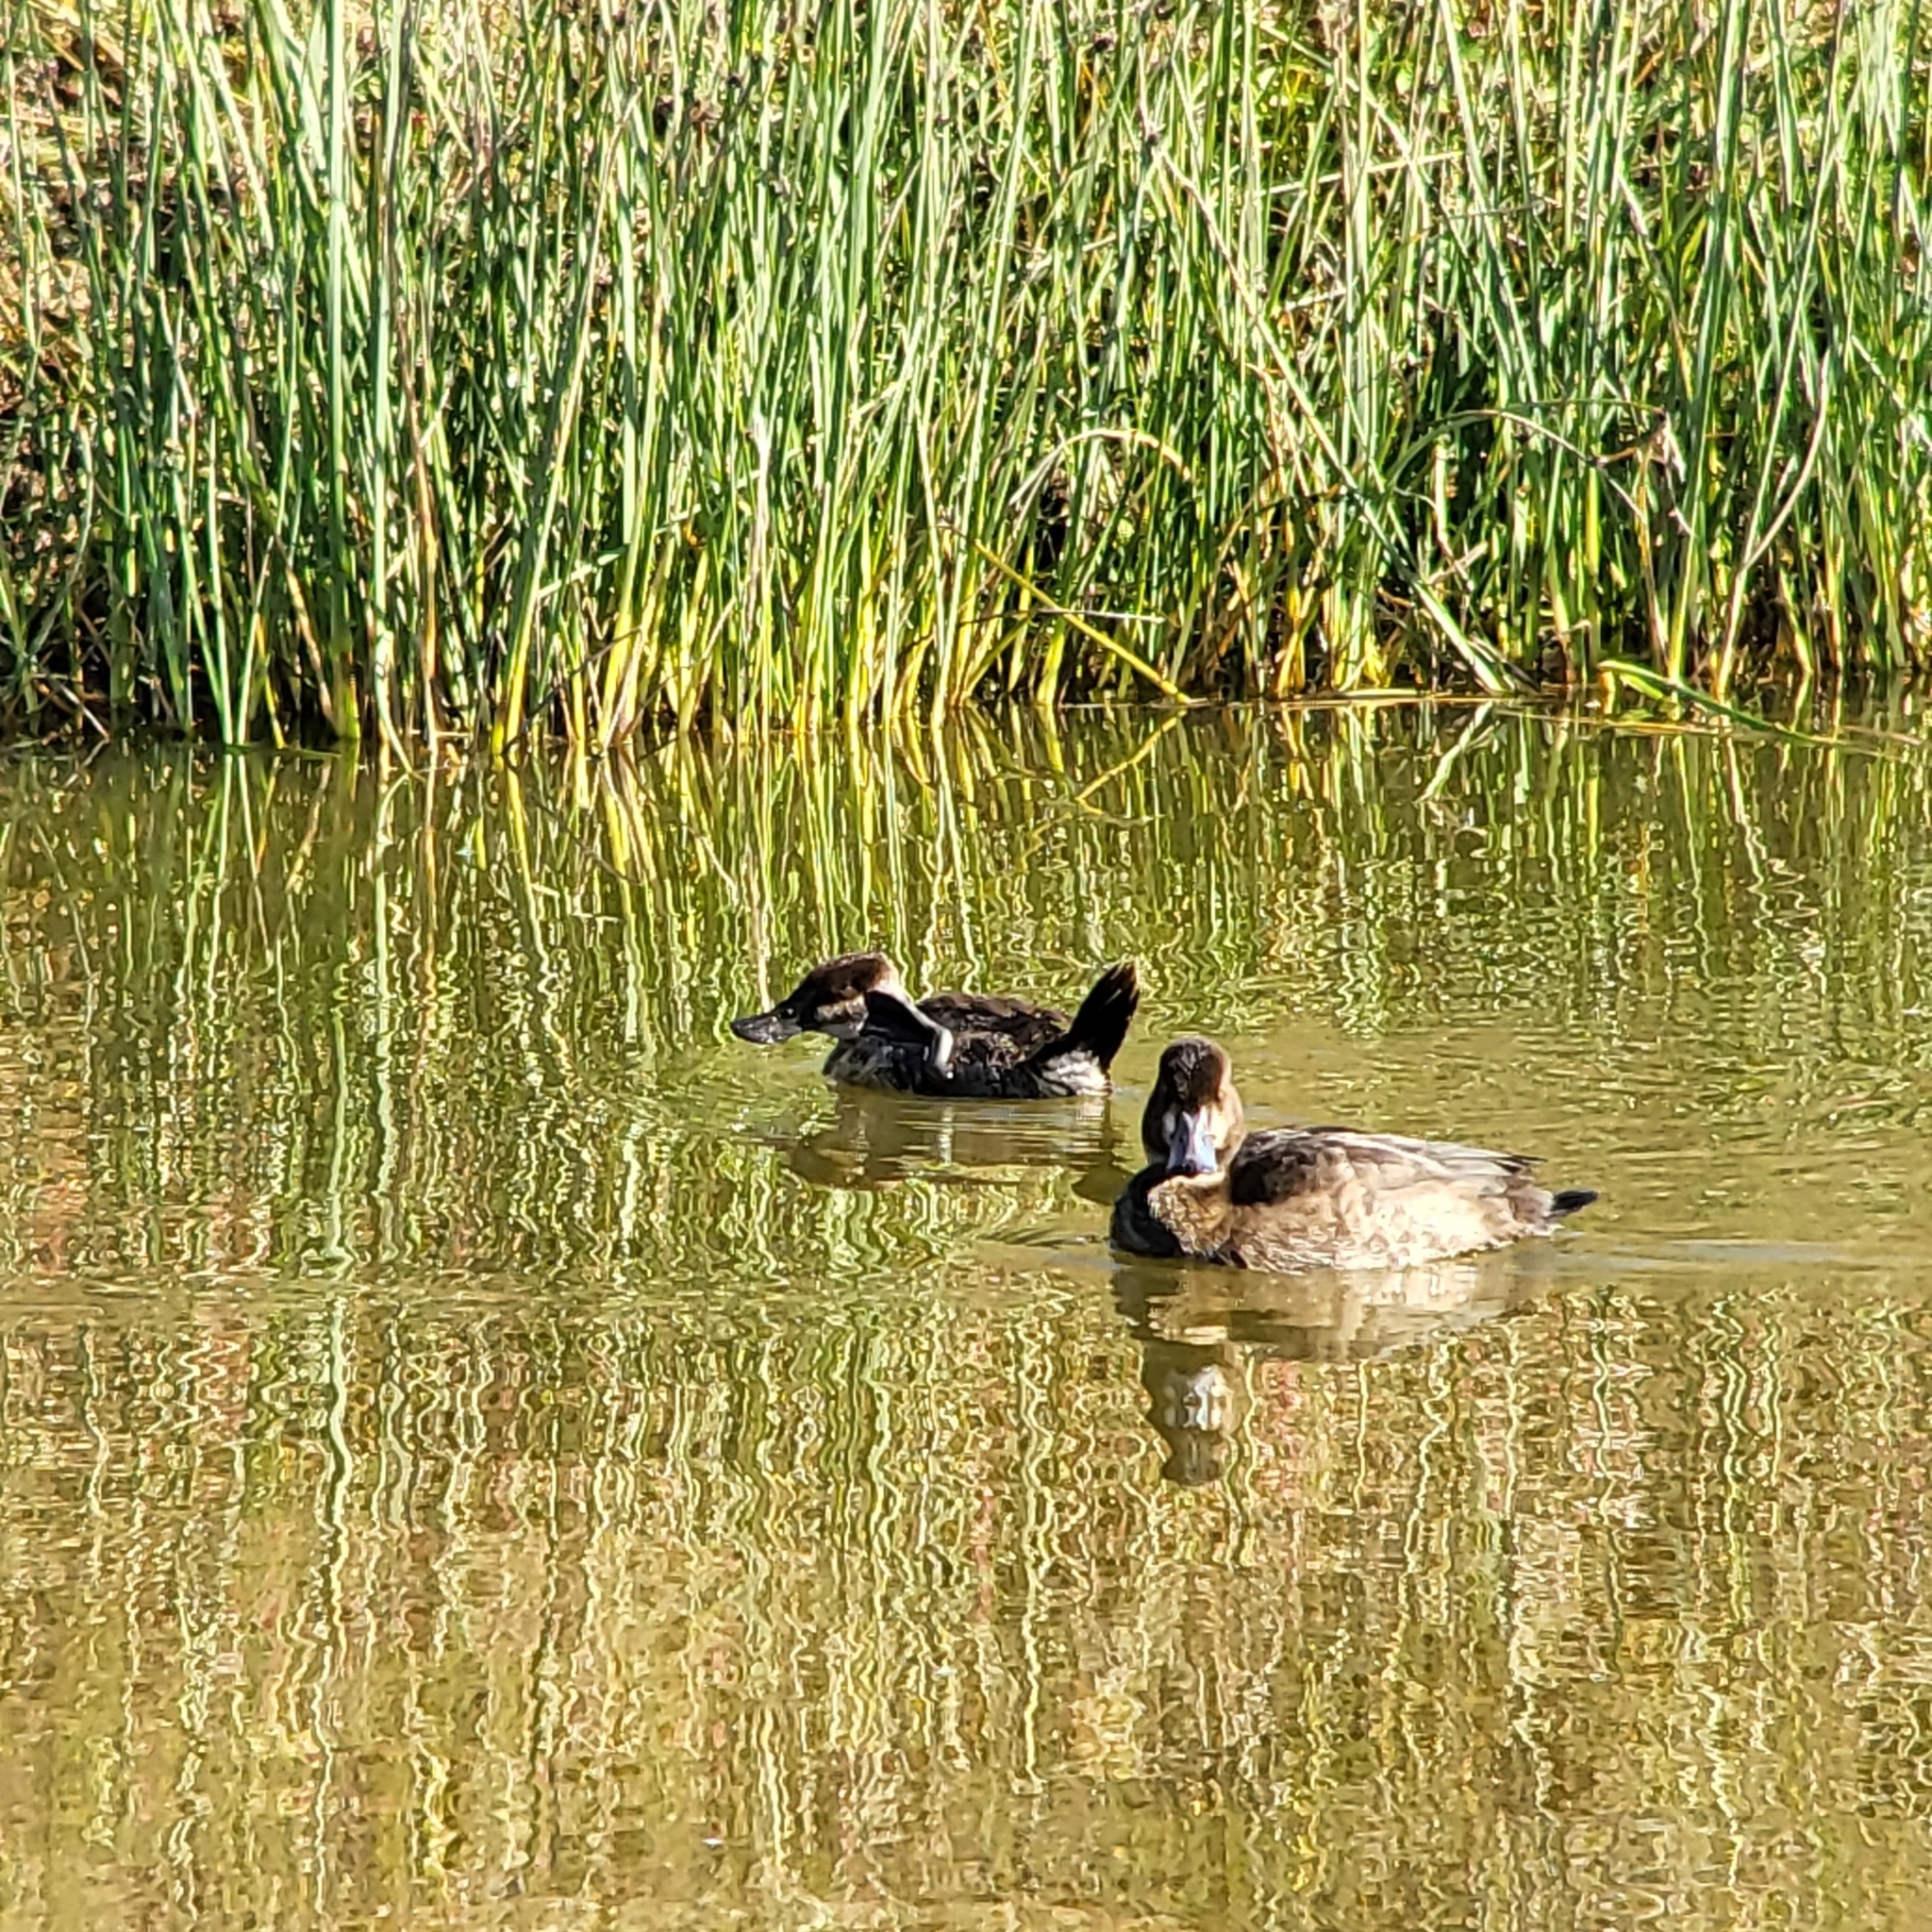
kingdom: Animalia
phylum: Chordata
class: Aves
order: Anseriformes
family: Anatidae
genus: Oxyura
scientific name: Oxyura jamaicensis
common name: Ruddy duck
